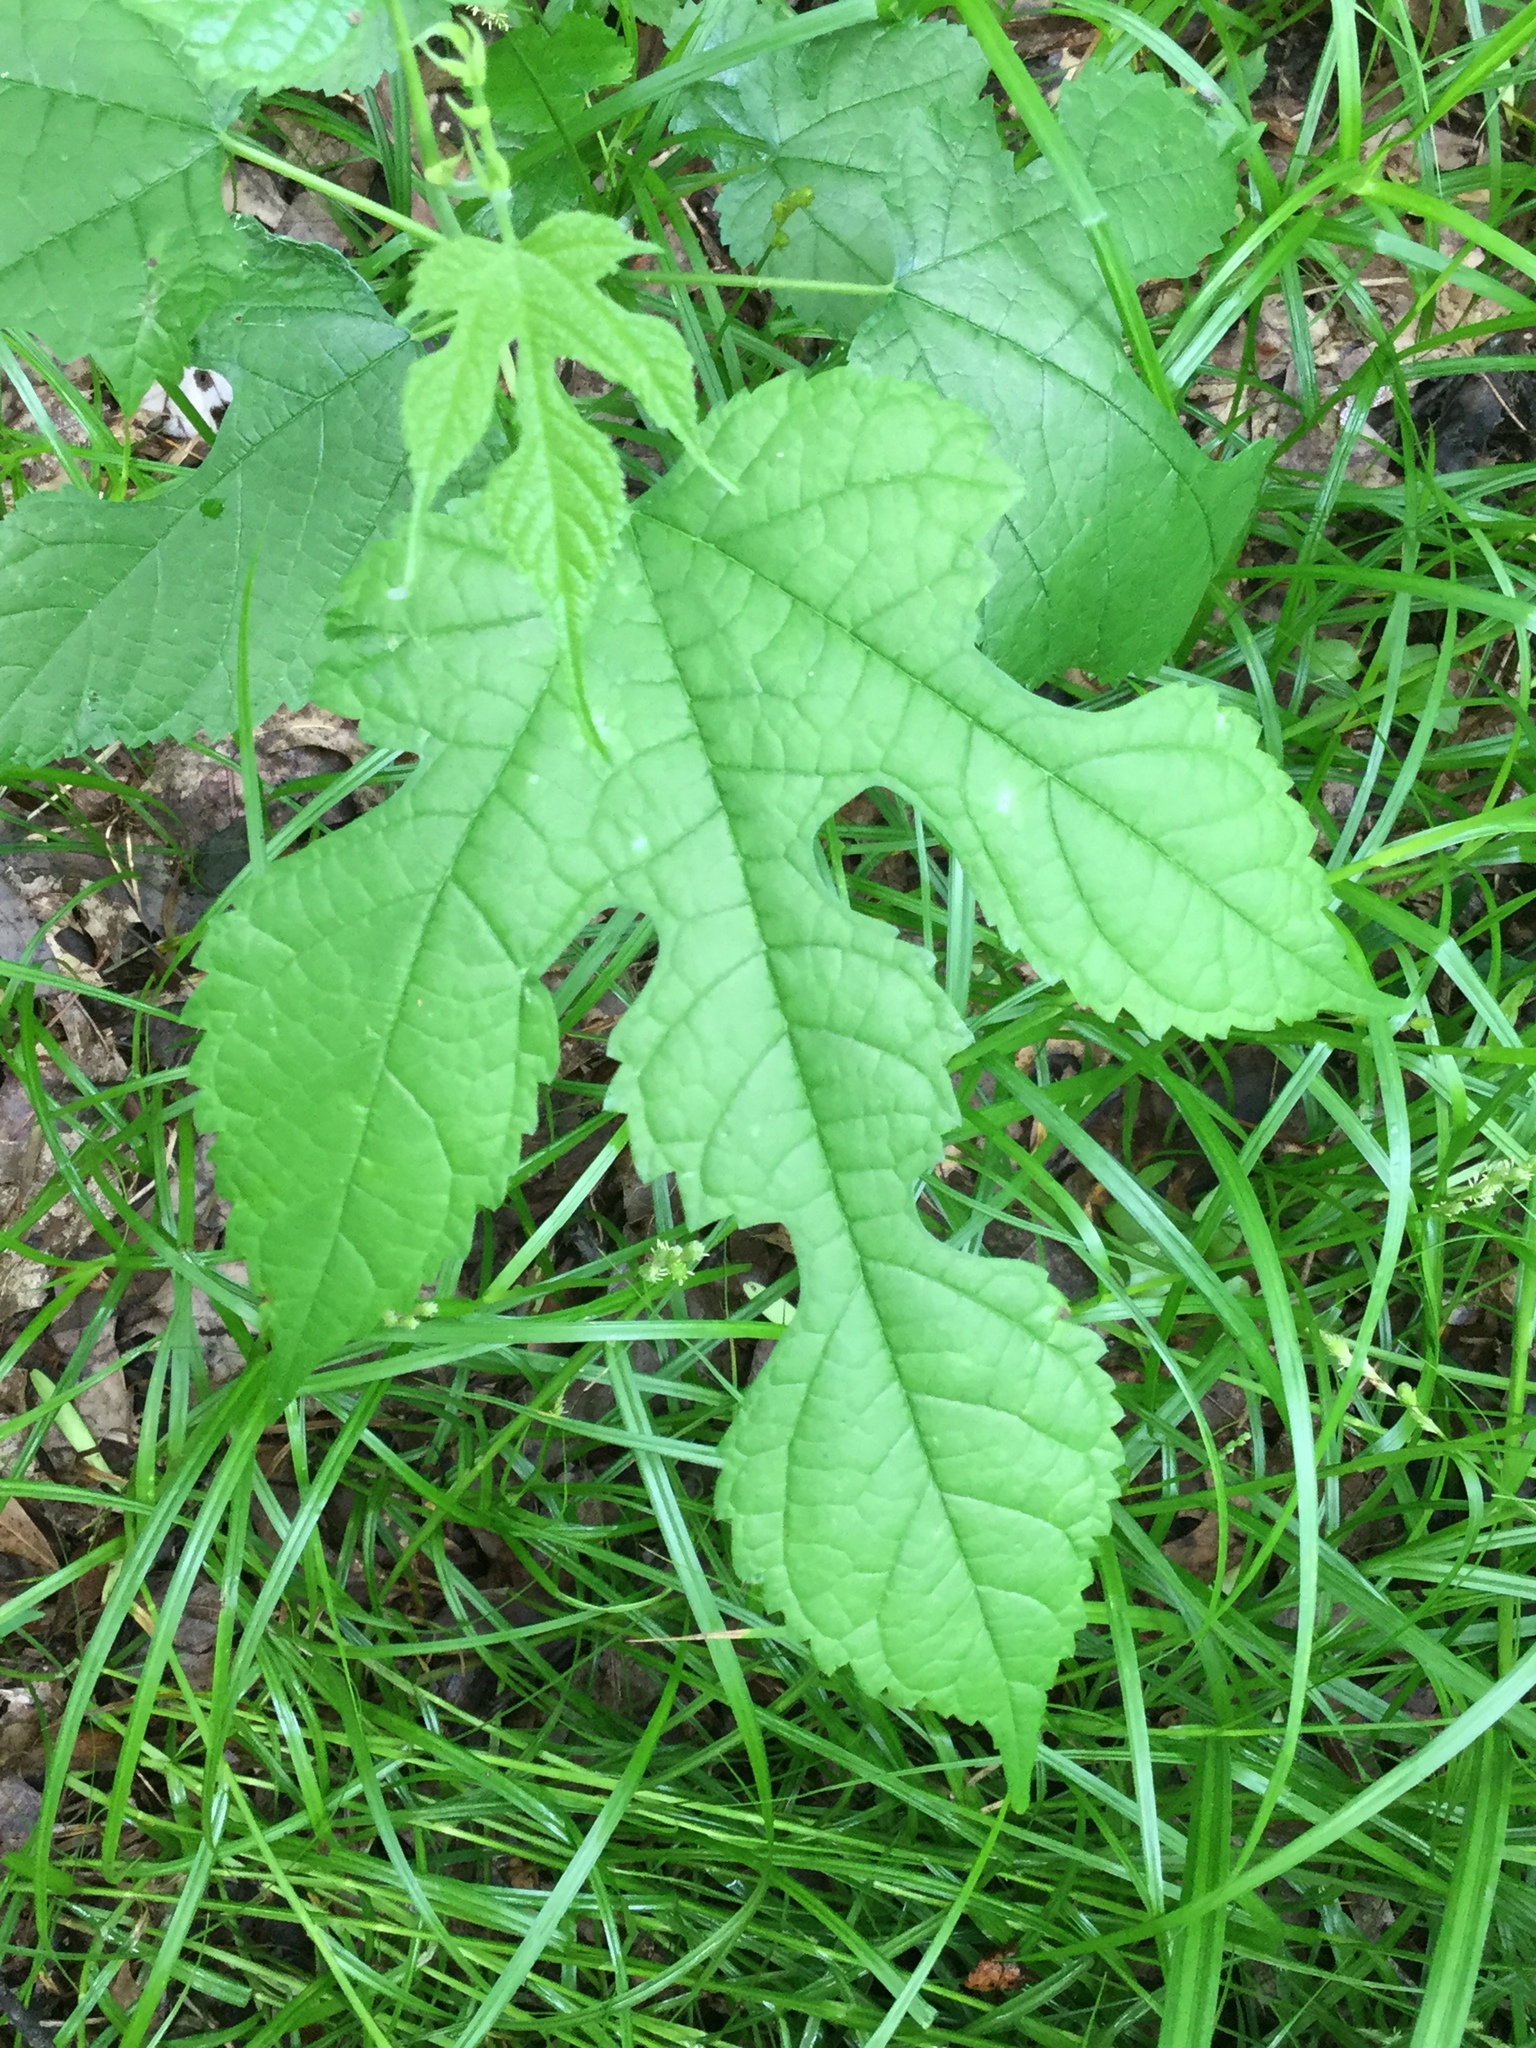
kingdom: Plantae
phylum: Tracheophyta
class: Magnoliopsida
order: Rosales
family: Moraceae
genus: Morus
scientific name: Morus rubra
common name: Red mulberry
